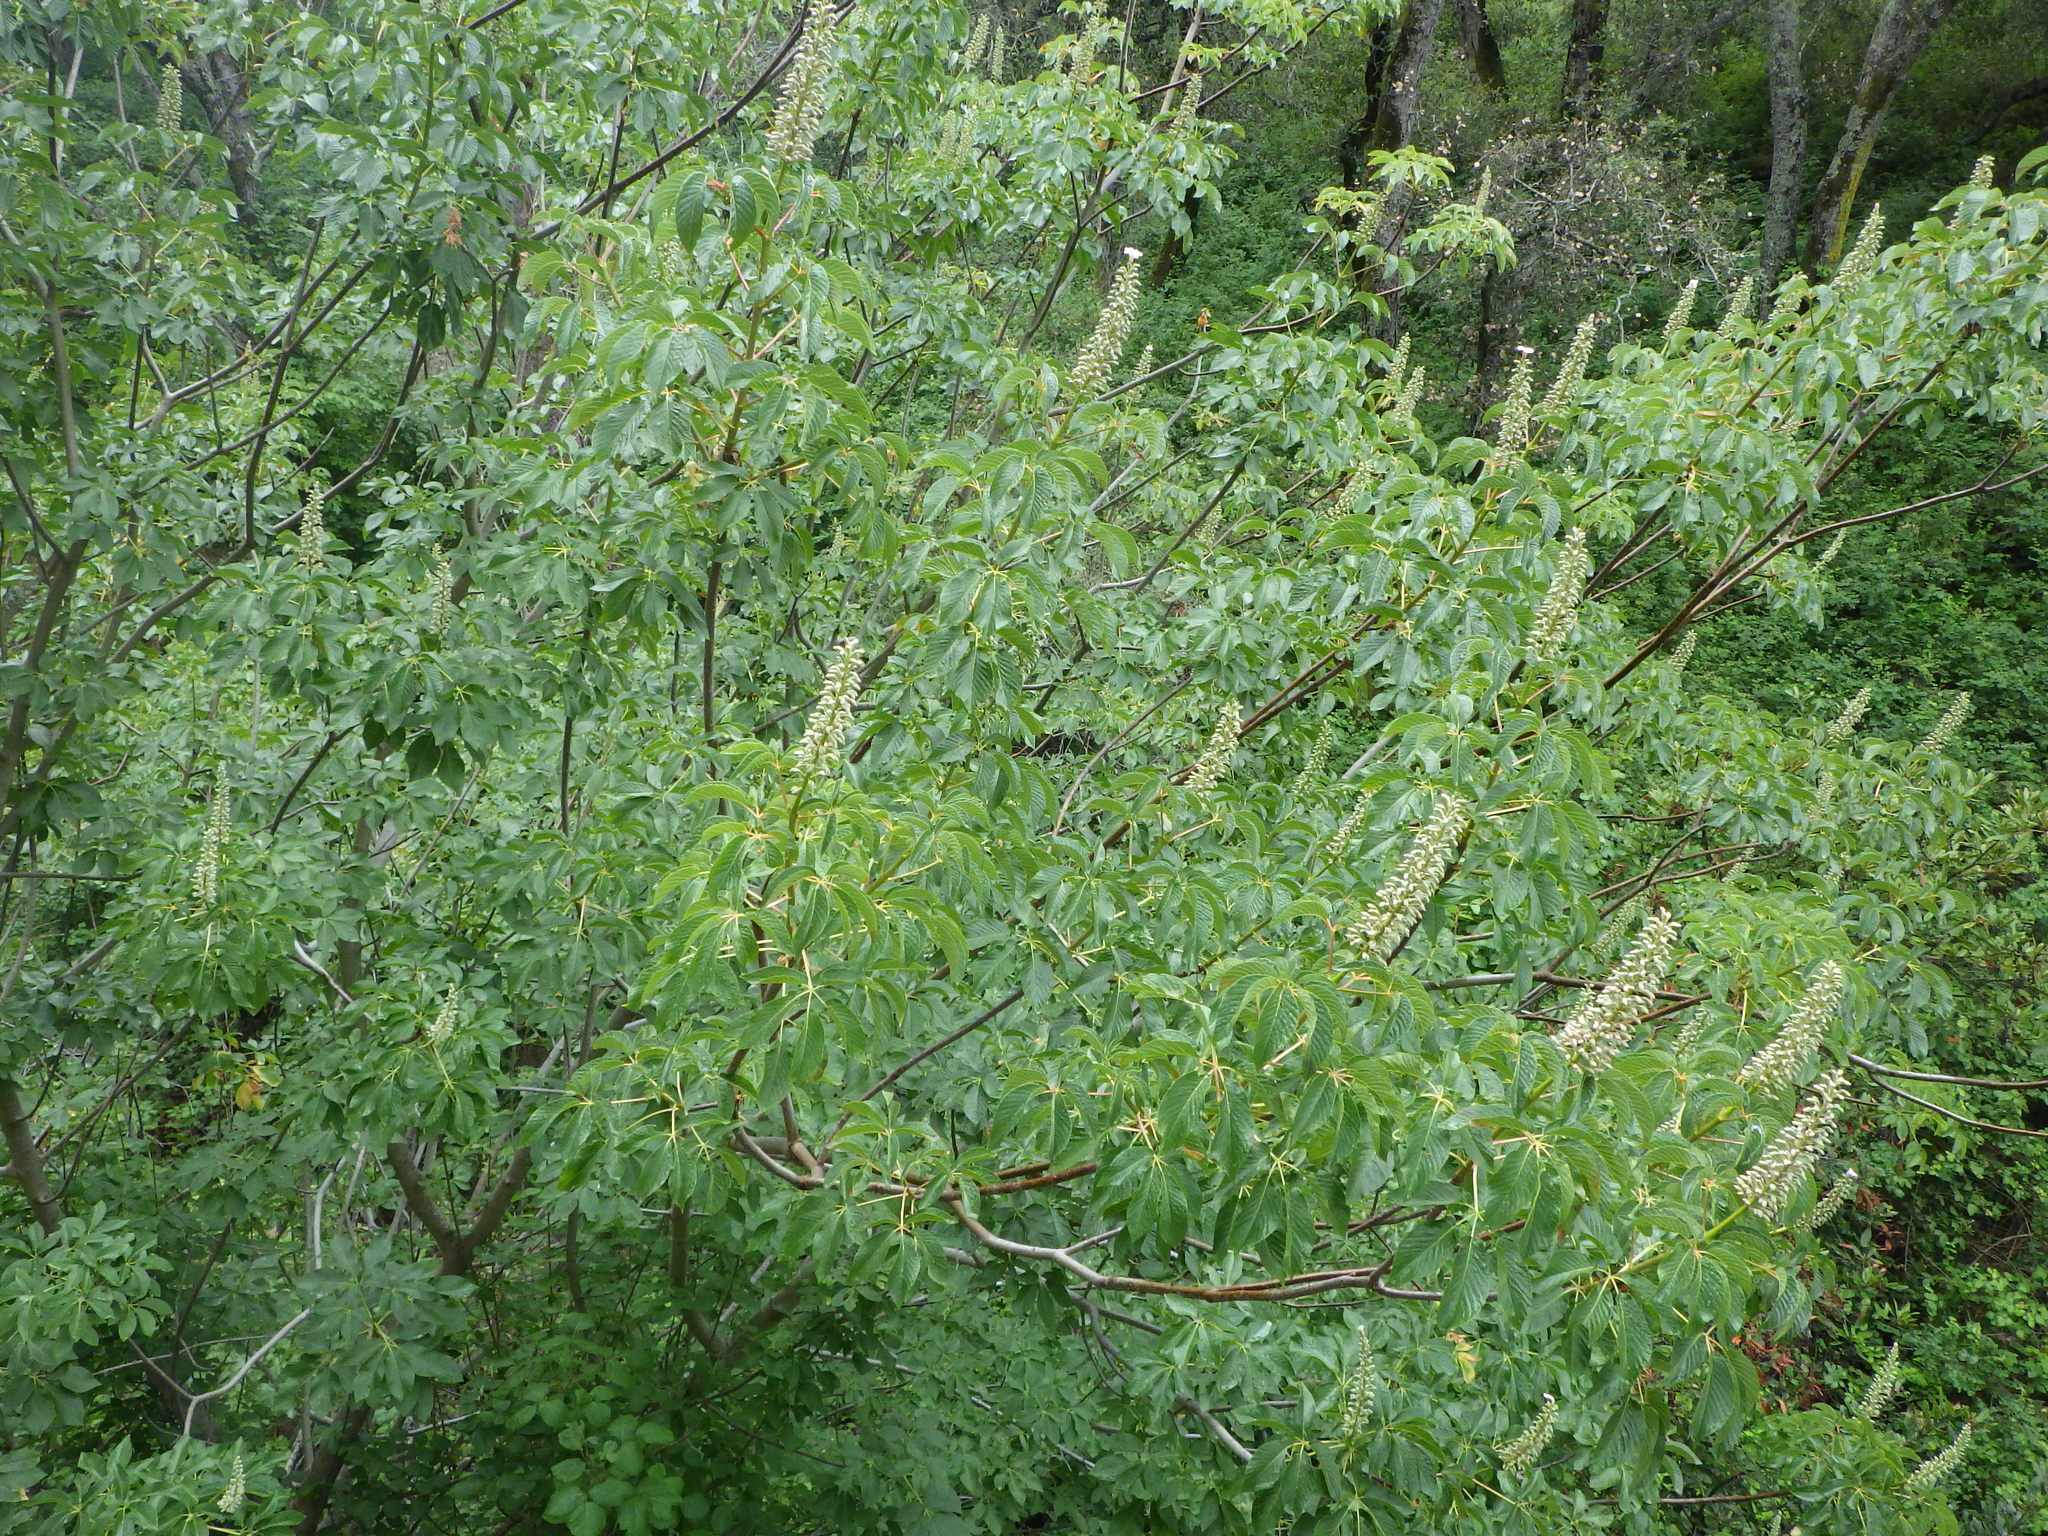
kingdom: Plantae
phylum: Tracheophyta
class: Magnoliopsida
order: Sapindales
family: Sapindaceae
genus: Aesculus
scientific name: Aesculus californica
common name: California buckeye
